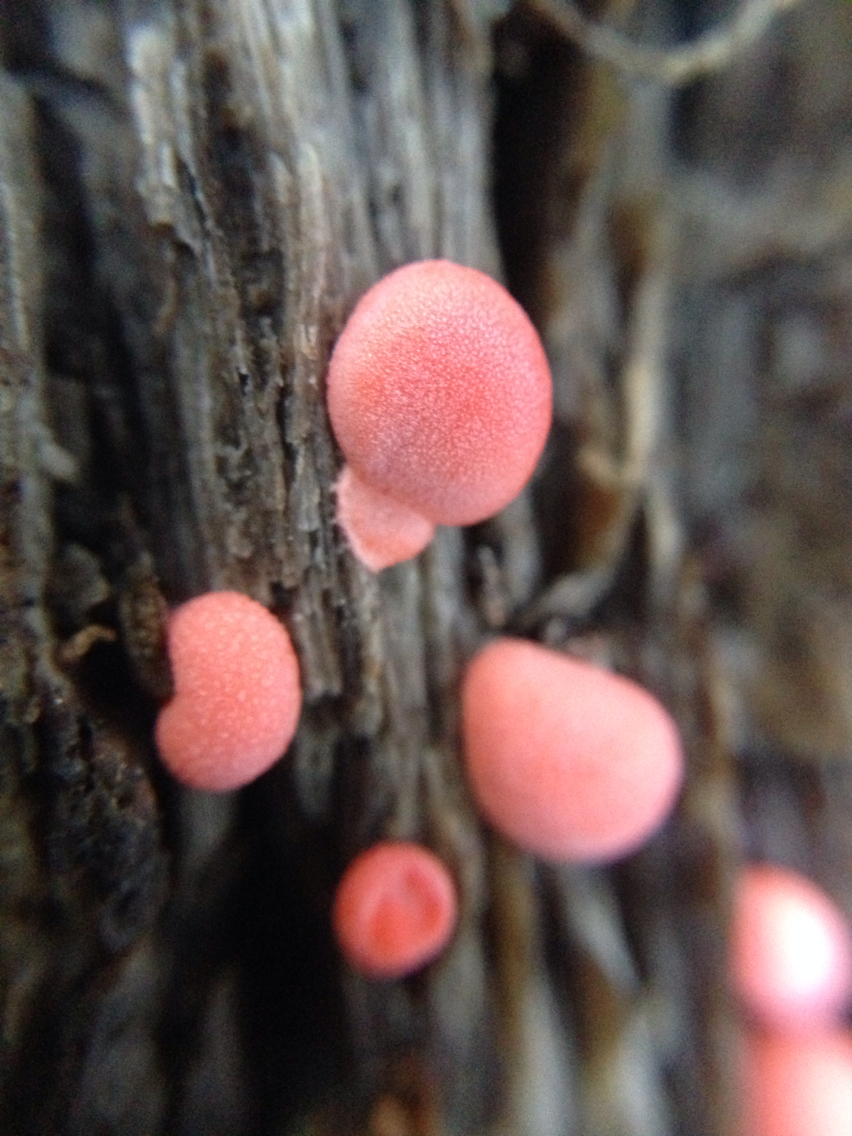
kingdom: Protozoa
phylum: Mycetozoa
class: Myxomycetes
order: Cribrariales
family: Tubiferaceae
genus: Lycogala
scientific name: Lycogala epidendrum
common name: Wolf's milk
